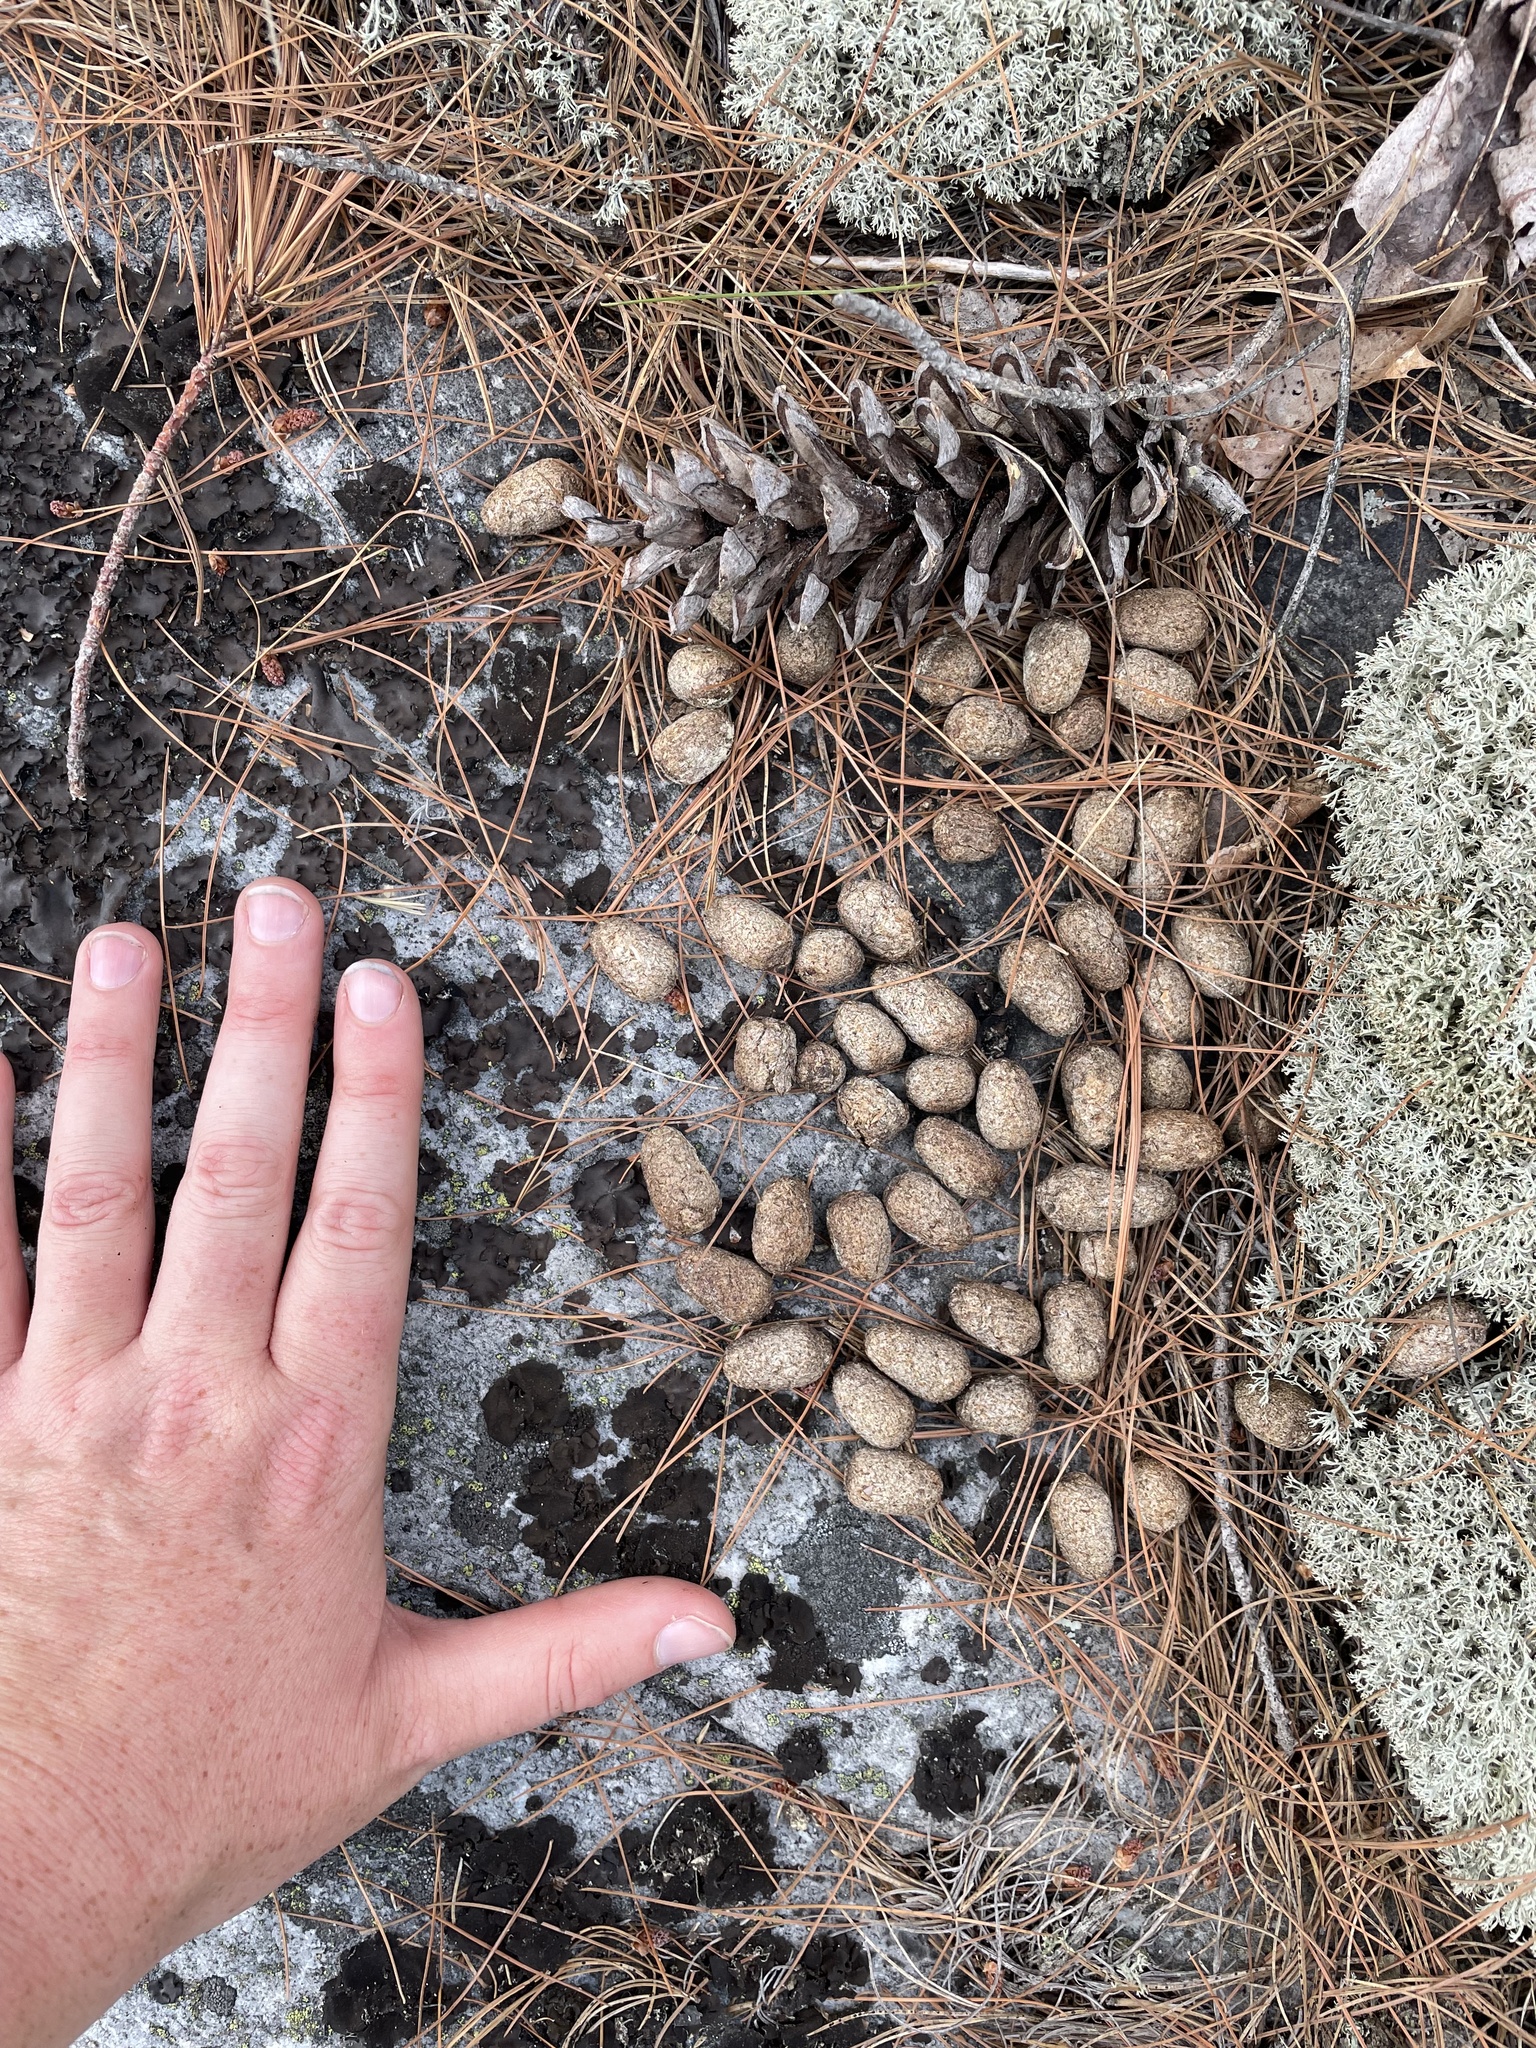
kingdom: Animalia
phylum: Chordata
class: Mammalia
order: Artiodactyla
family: Cervidae
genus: Alces
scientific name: Alces alces
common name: Moose
